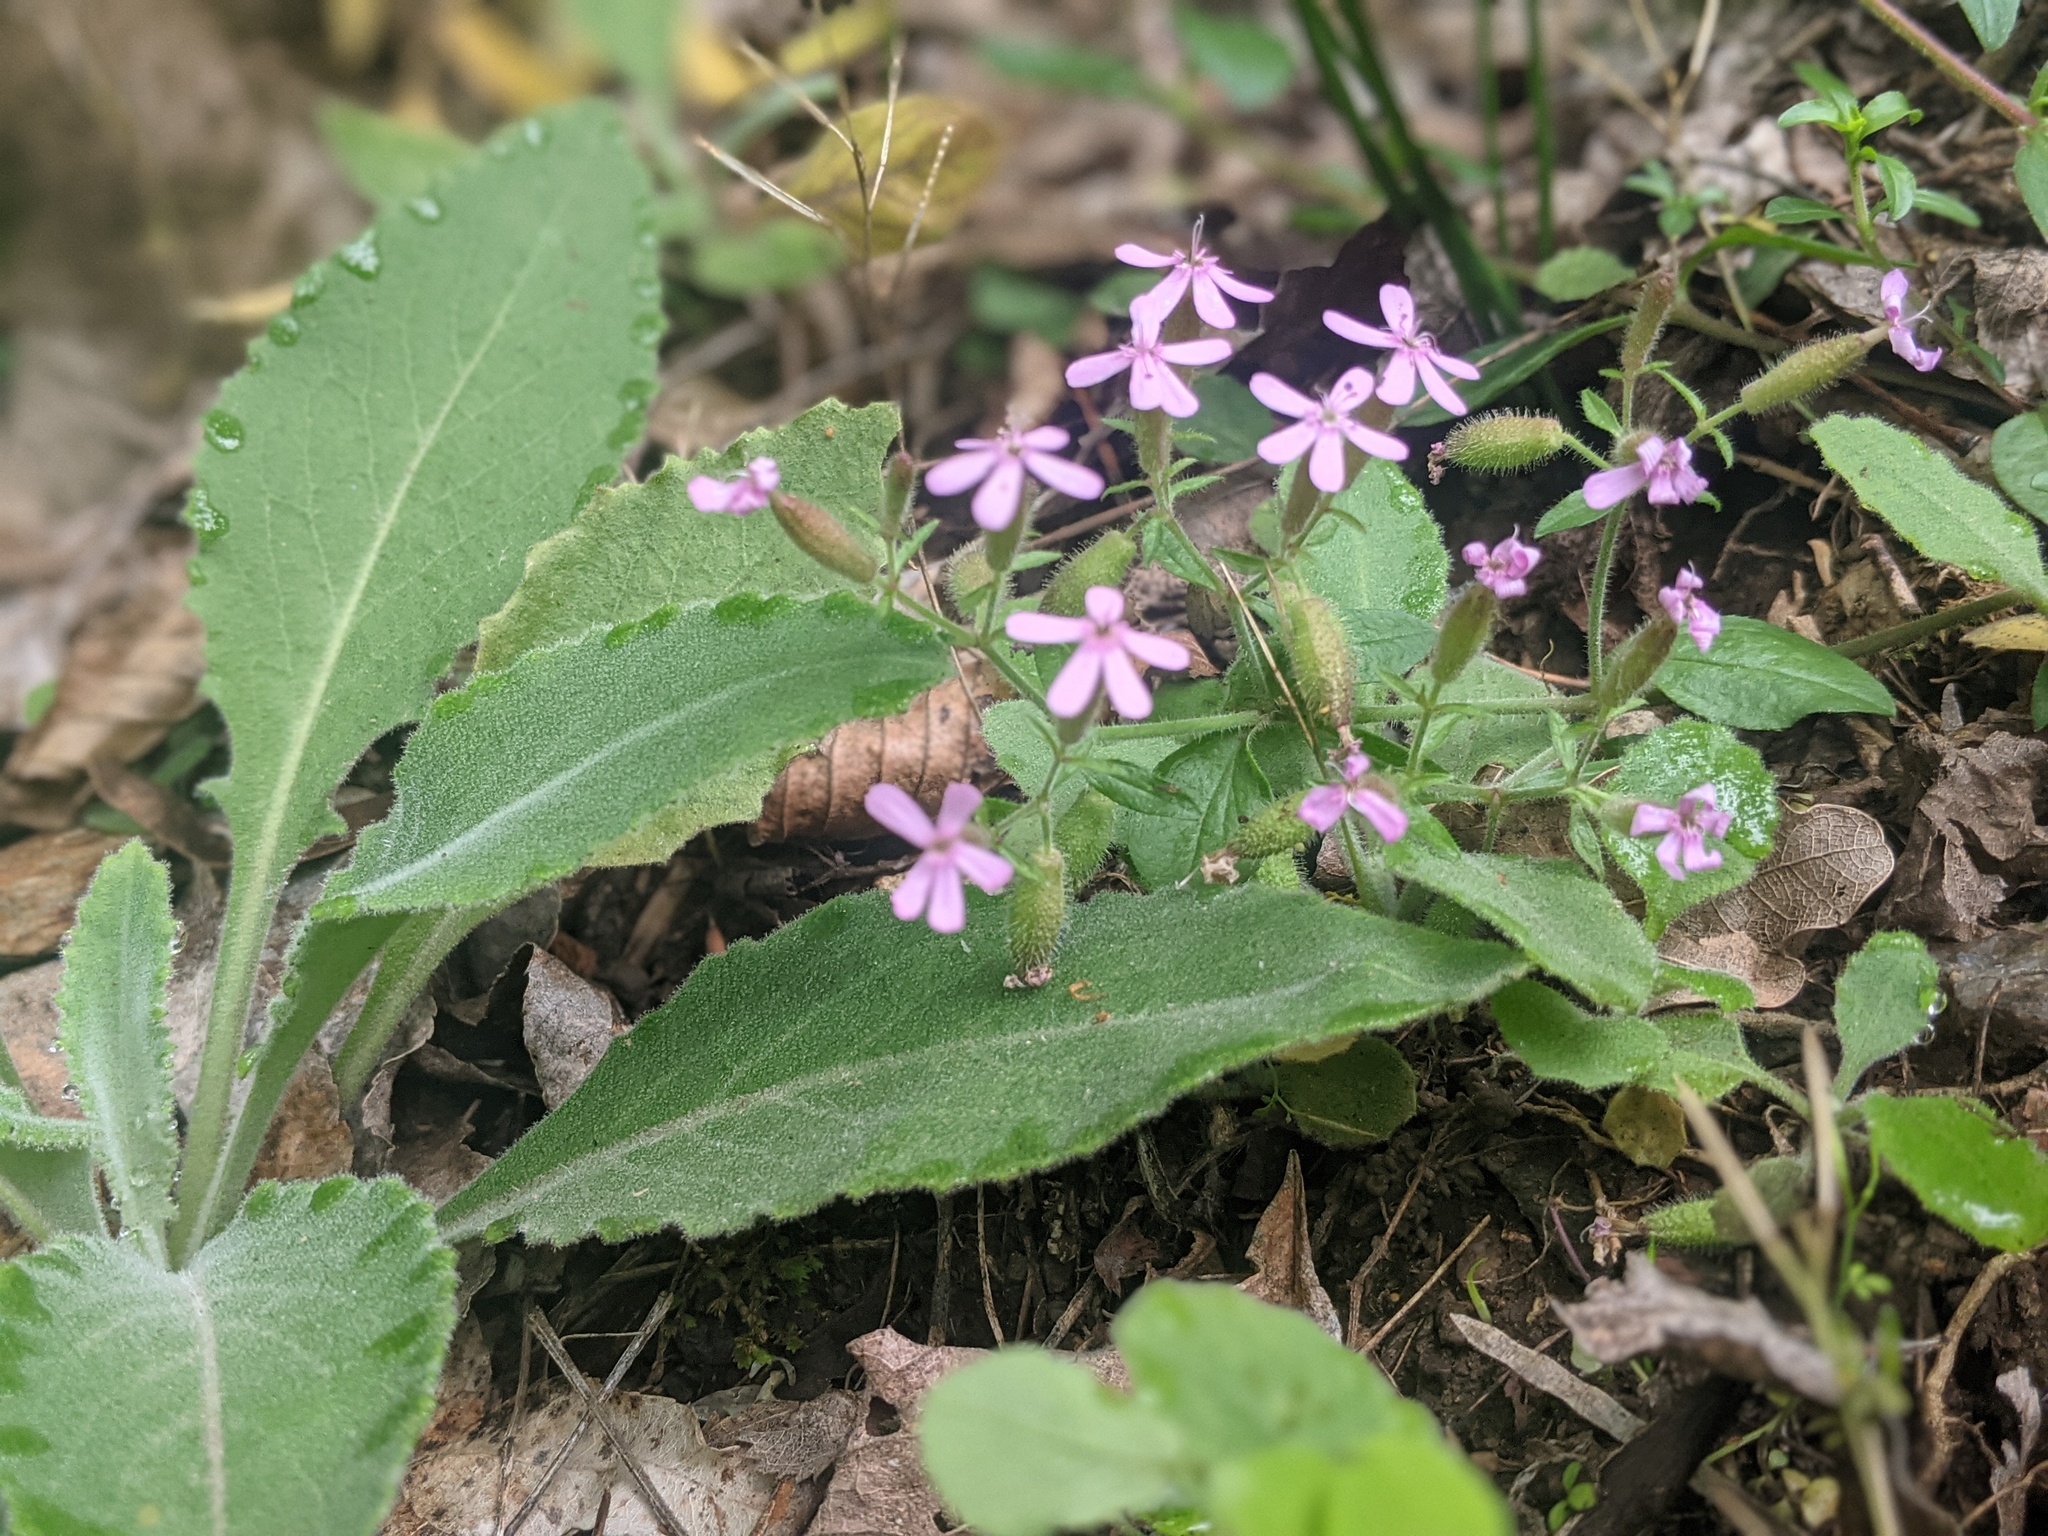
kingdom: Plantae
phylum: Tracheophyta
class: Magnoliopsida
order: Caryophyllales
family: Caryophyllaceae
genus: Saponaria
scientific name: Saponaria ocymoides
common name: Rock soapwort
